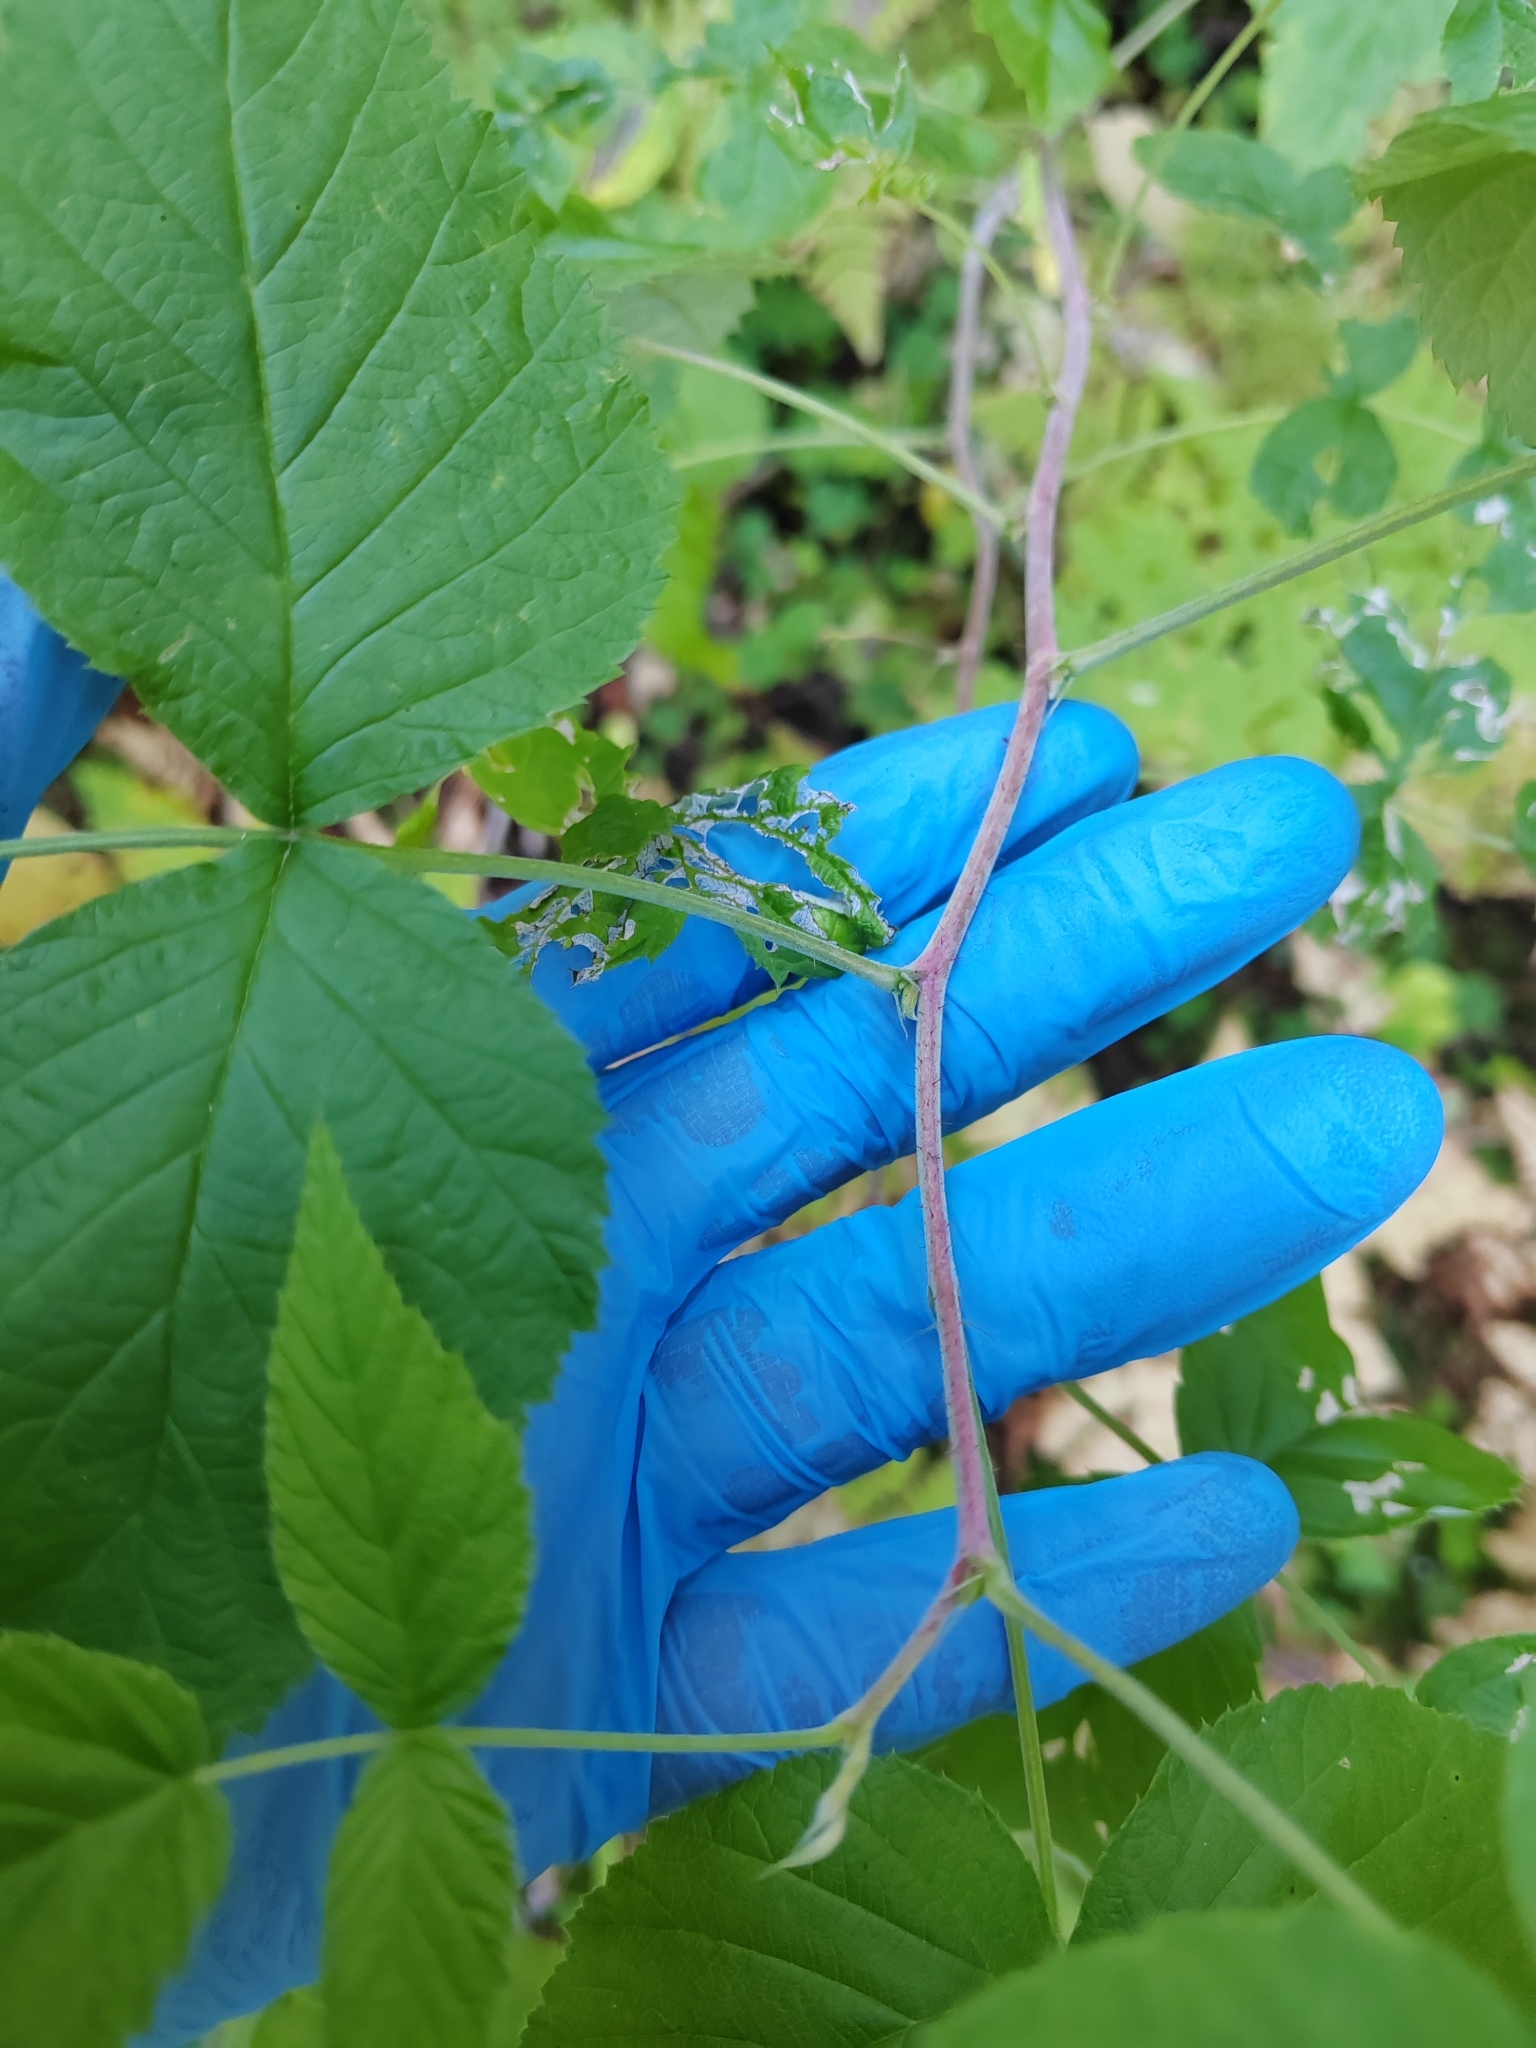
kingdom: Plantae
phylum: Tracheophyta
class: Magnoliopsida
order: Rosales
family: Rosaceae
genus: Rubus
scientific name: Rubus idaeus
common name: Raspberry
